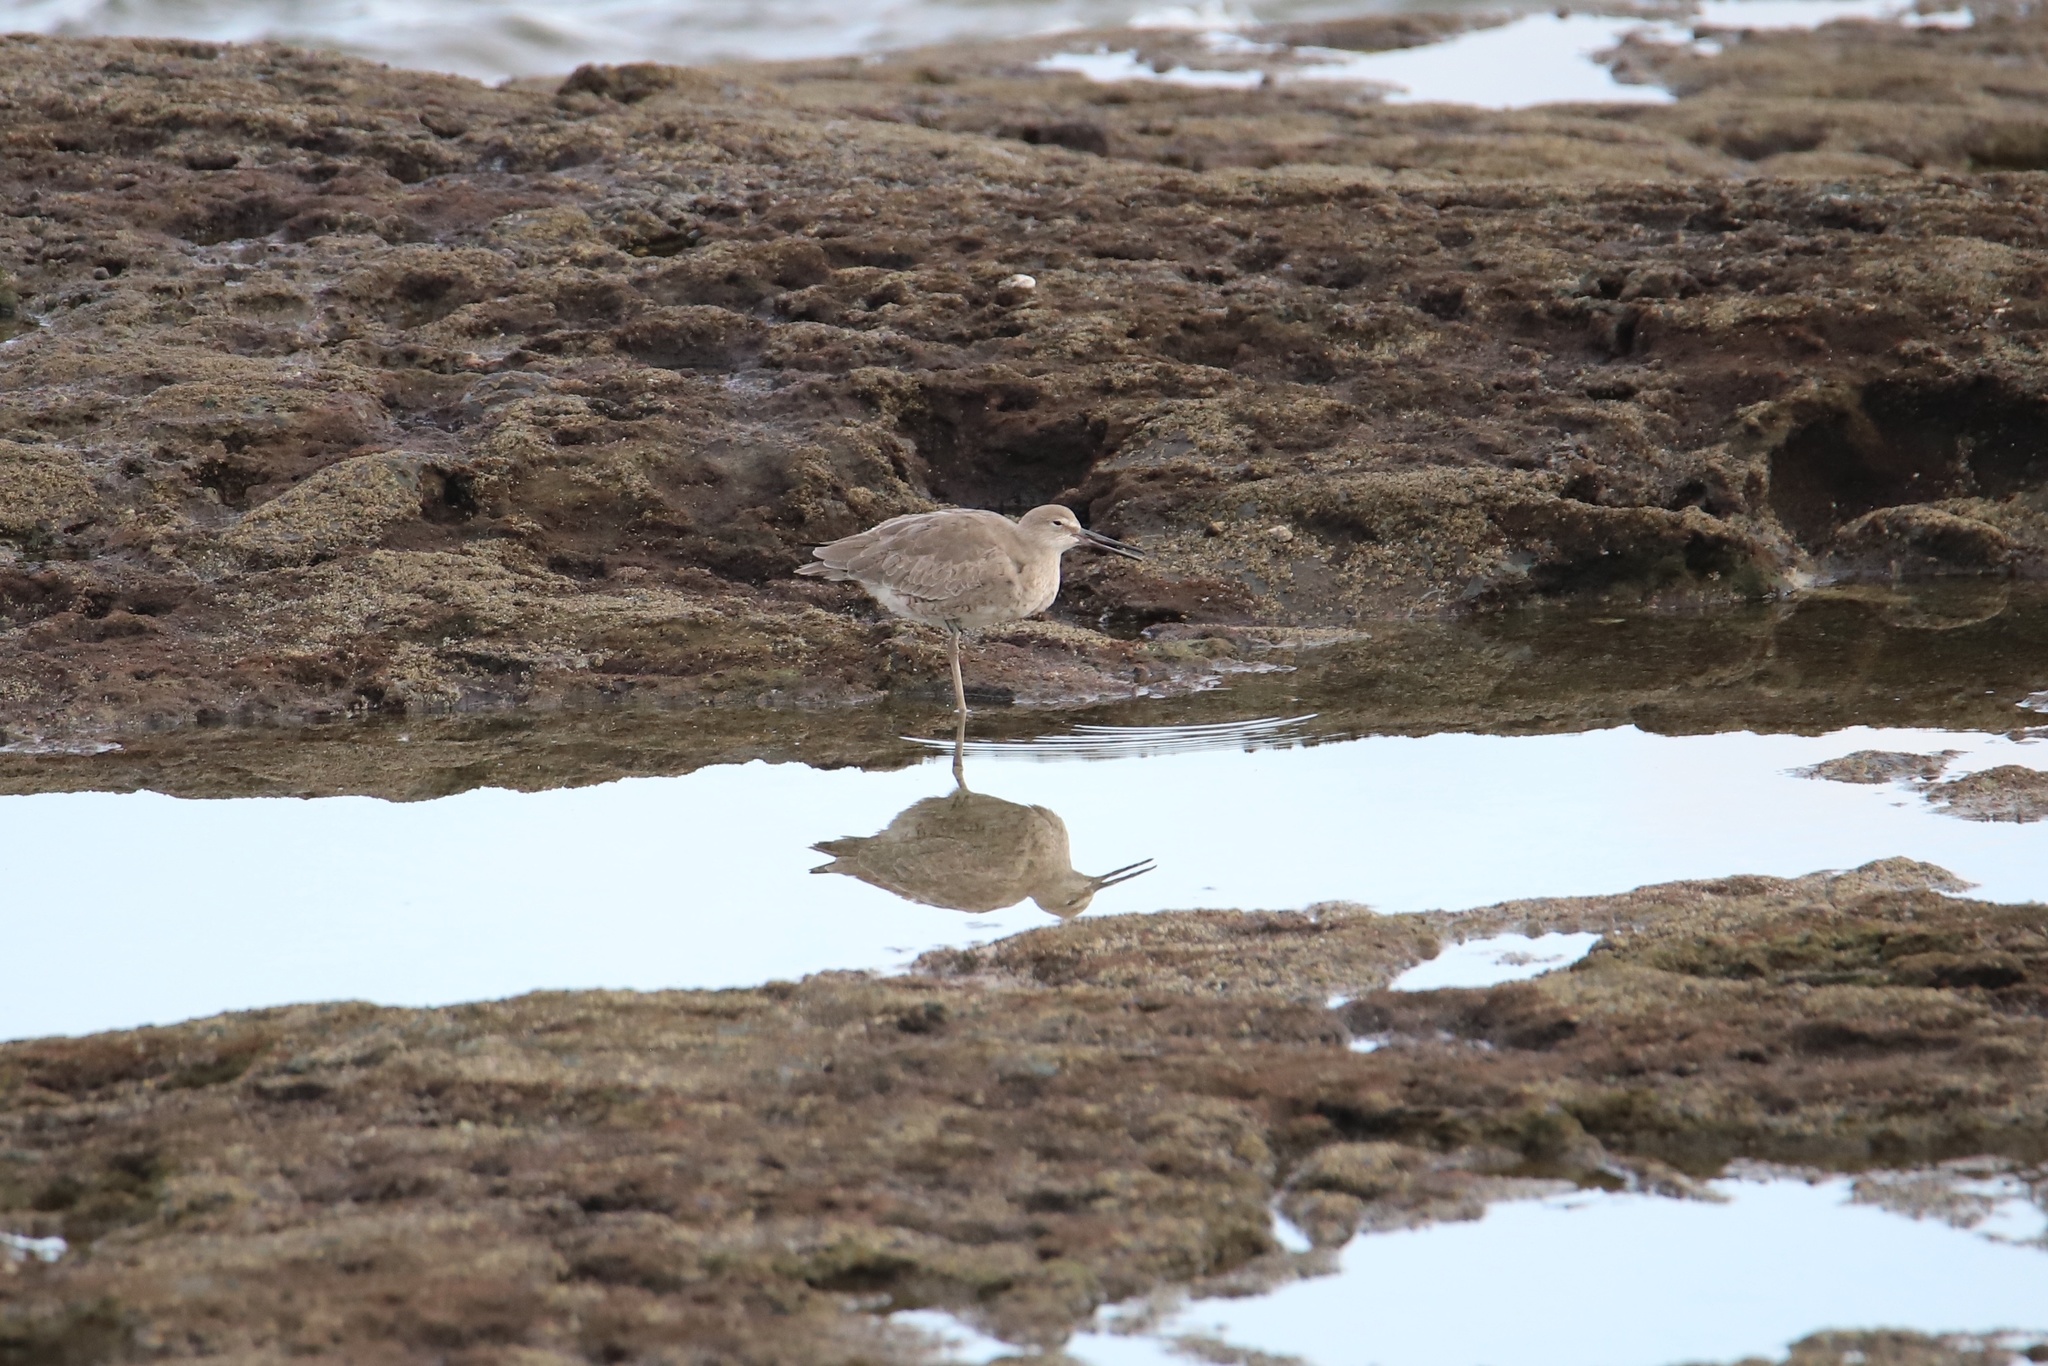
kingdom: Animalia
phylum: Chordata
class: Aves
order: Charadriiformes
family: Scolopacidae
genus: Tringa
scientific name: Tringa semipalmata
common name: Willet
